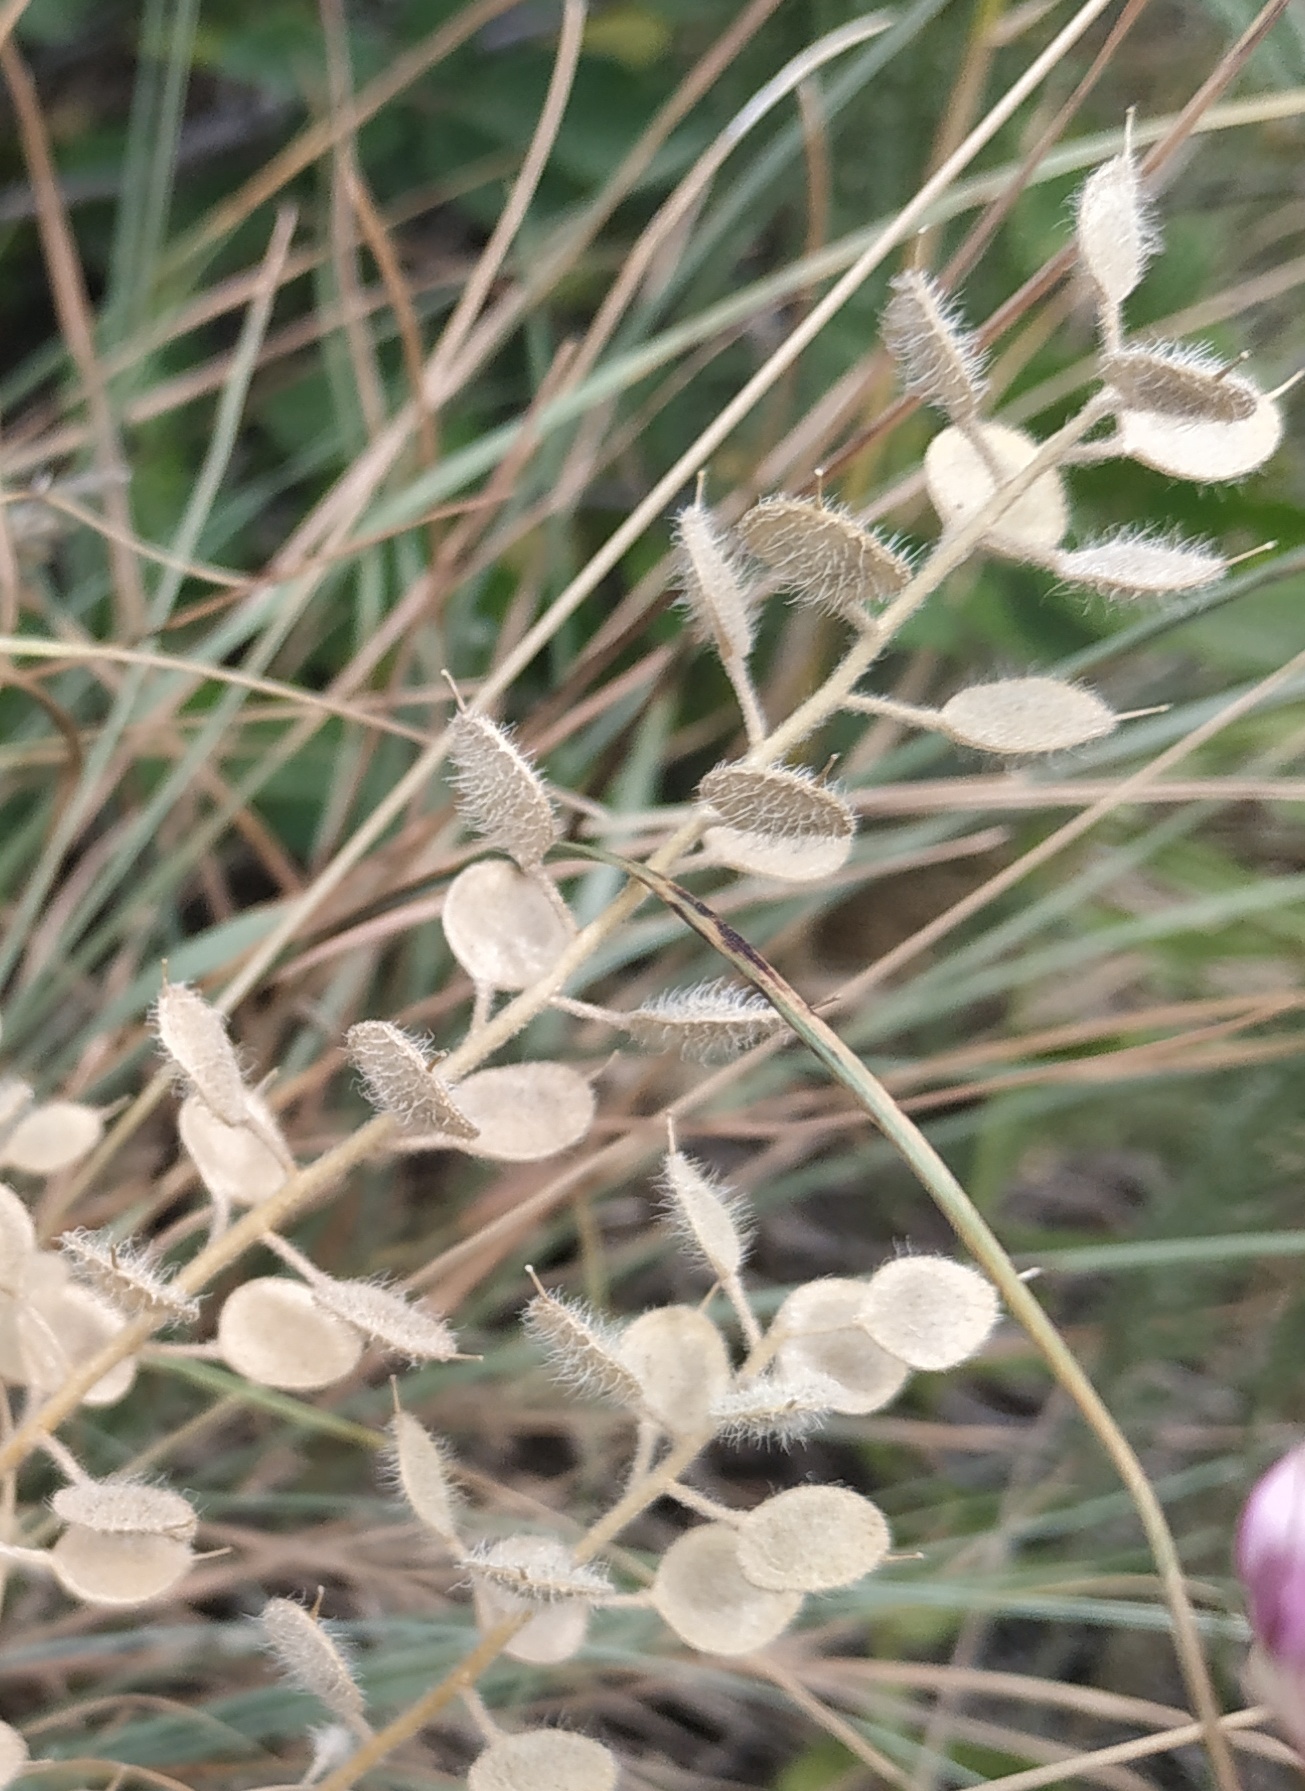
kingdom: Plantae
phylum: Tracheophyta
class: Magnoliopsida
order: Brassicales
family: Brassicaceae
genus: Alyssum
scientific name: Alyssum hirsutum
